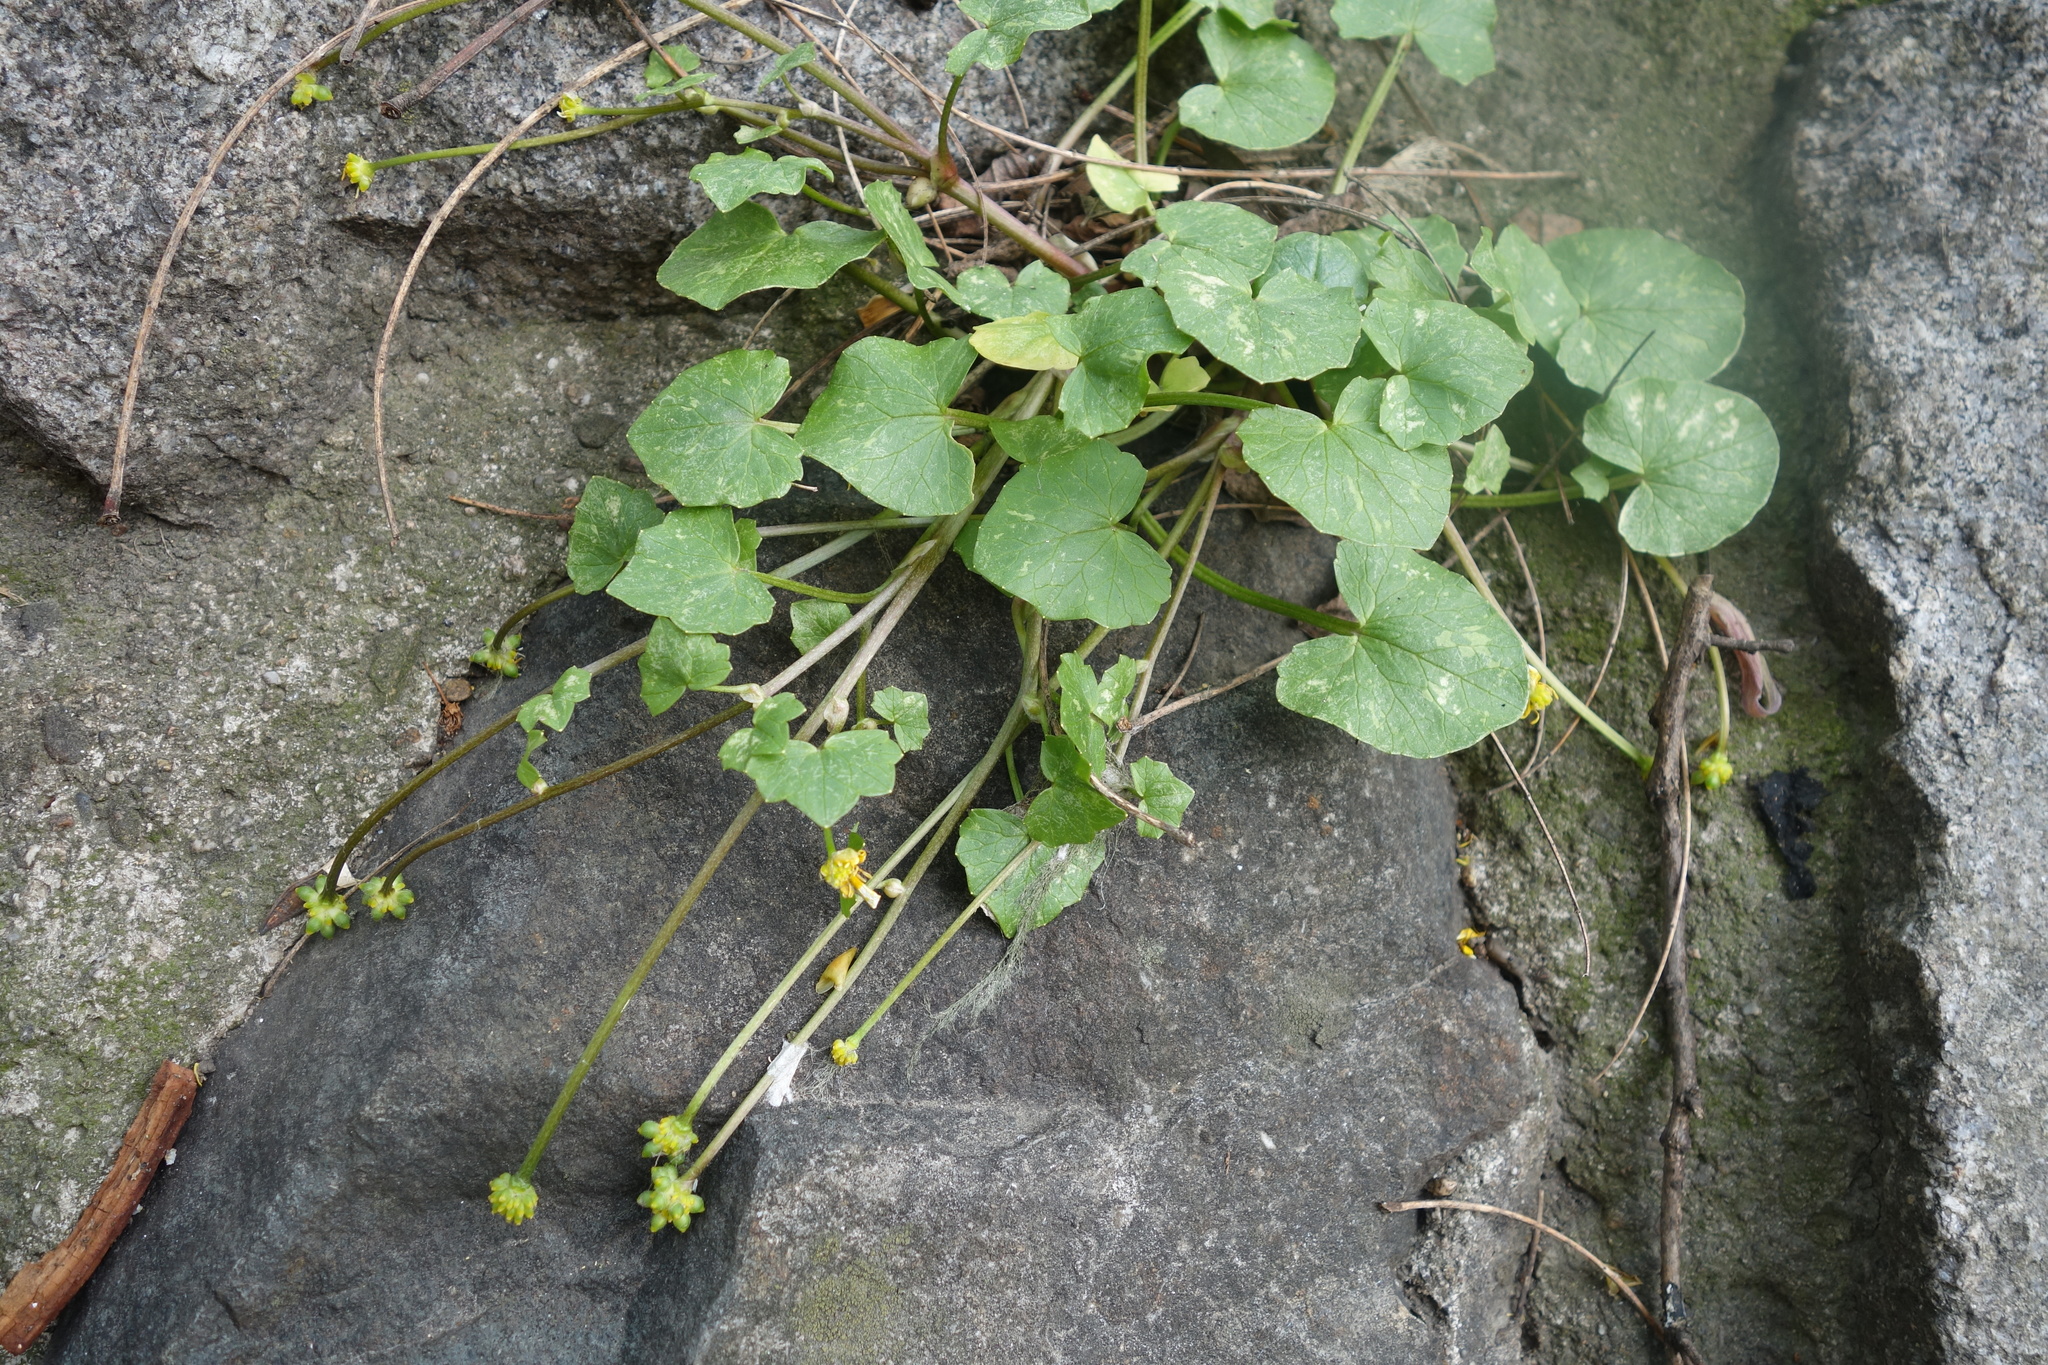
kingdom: Plantae
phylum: Tracheophyta
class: Magnoliopsida
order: Ranunculales
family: Ranunculaceae
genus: Ficaria
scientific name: Ficaria verna
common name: Lesser celandine
